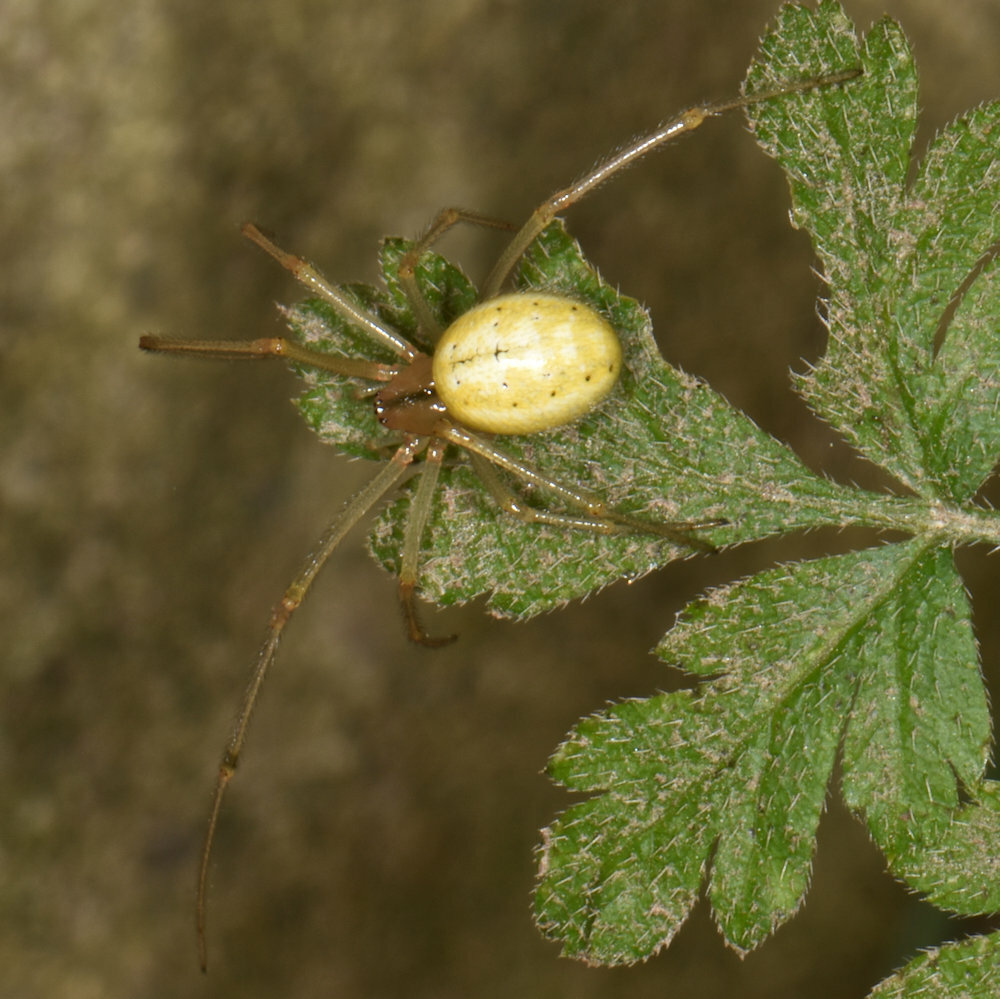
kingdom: Animalia
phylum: Arthropoda
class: Arachnida
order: Araneae
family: Theridiidae
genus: Enoplognatha
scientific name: Enoplognatha ovata
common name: Common candy-striped spider
